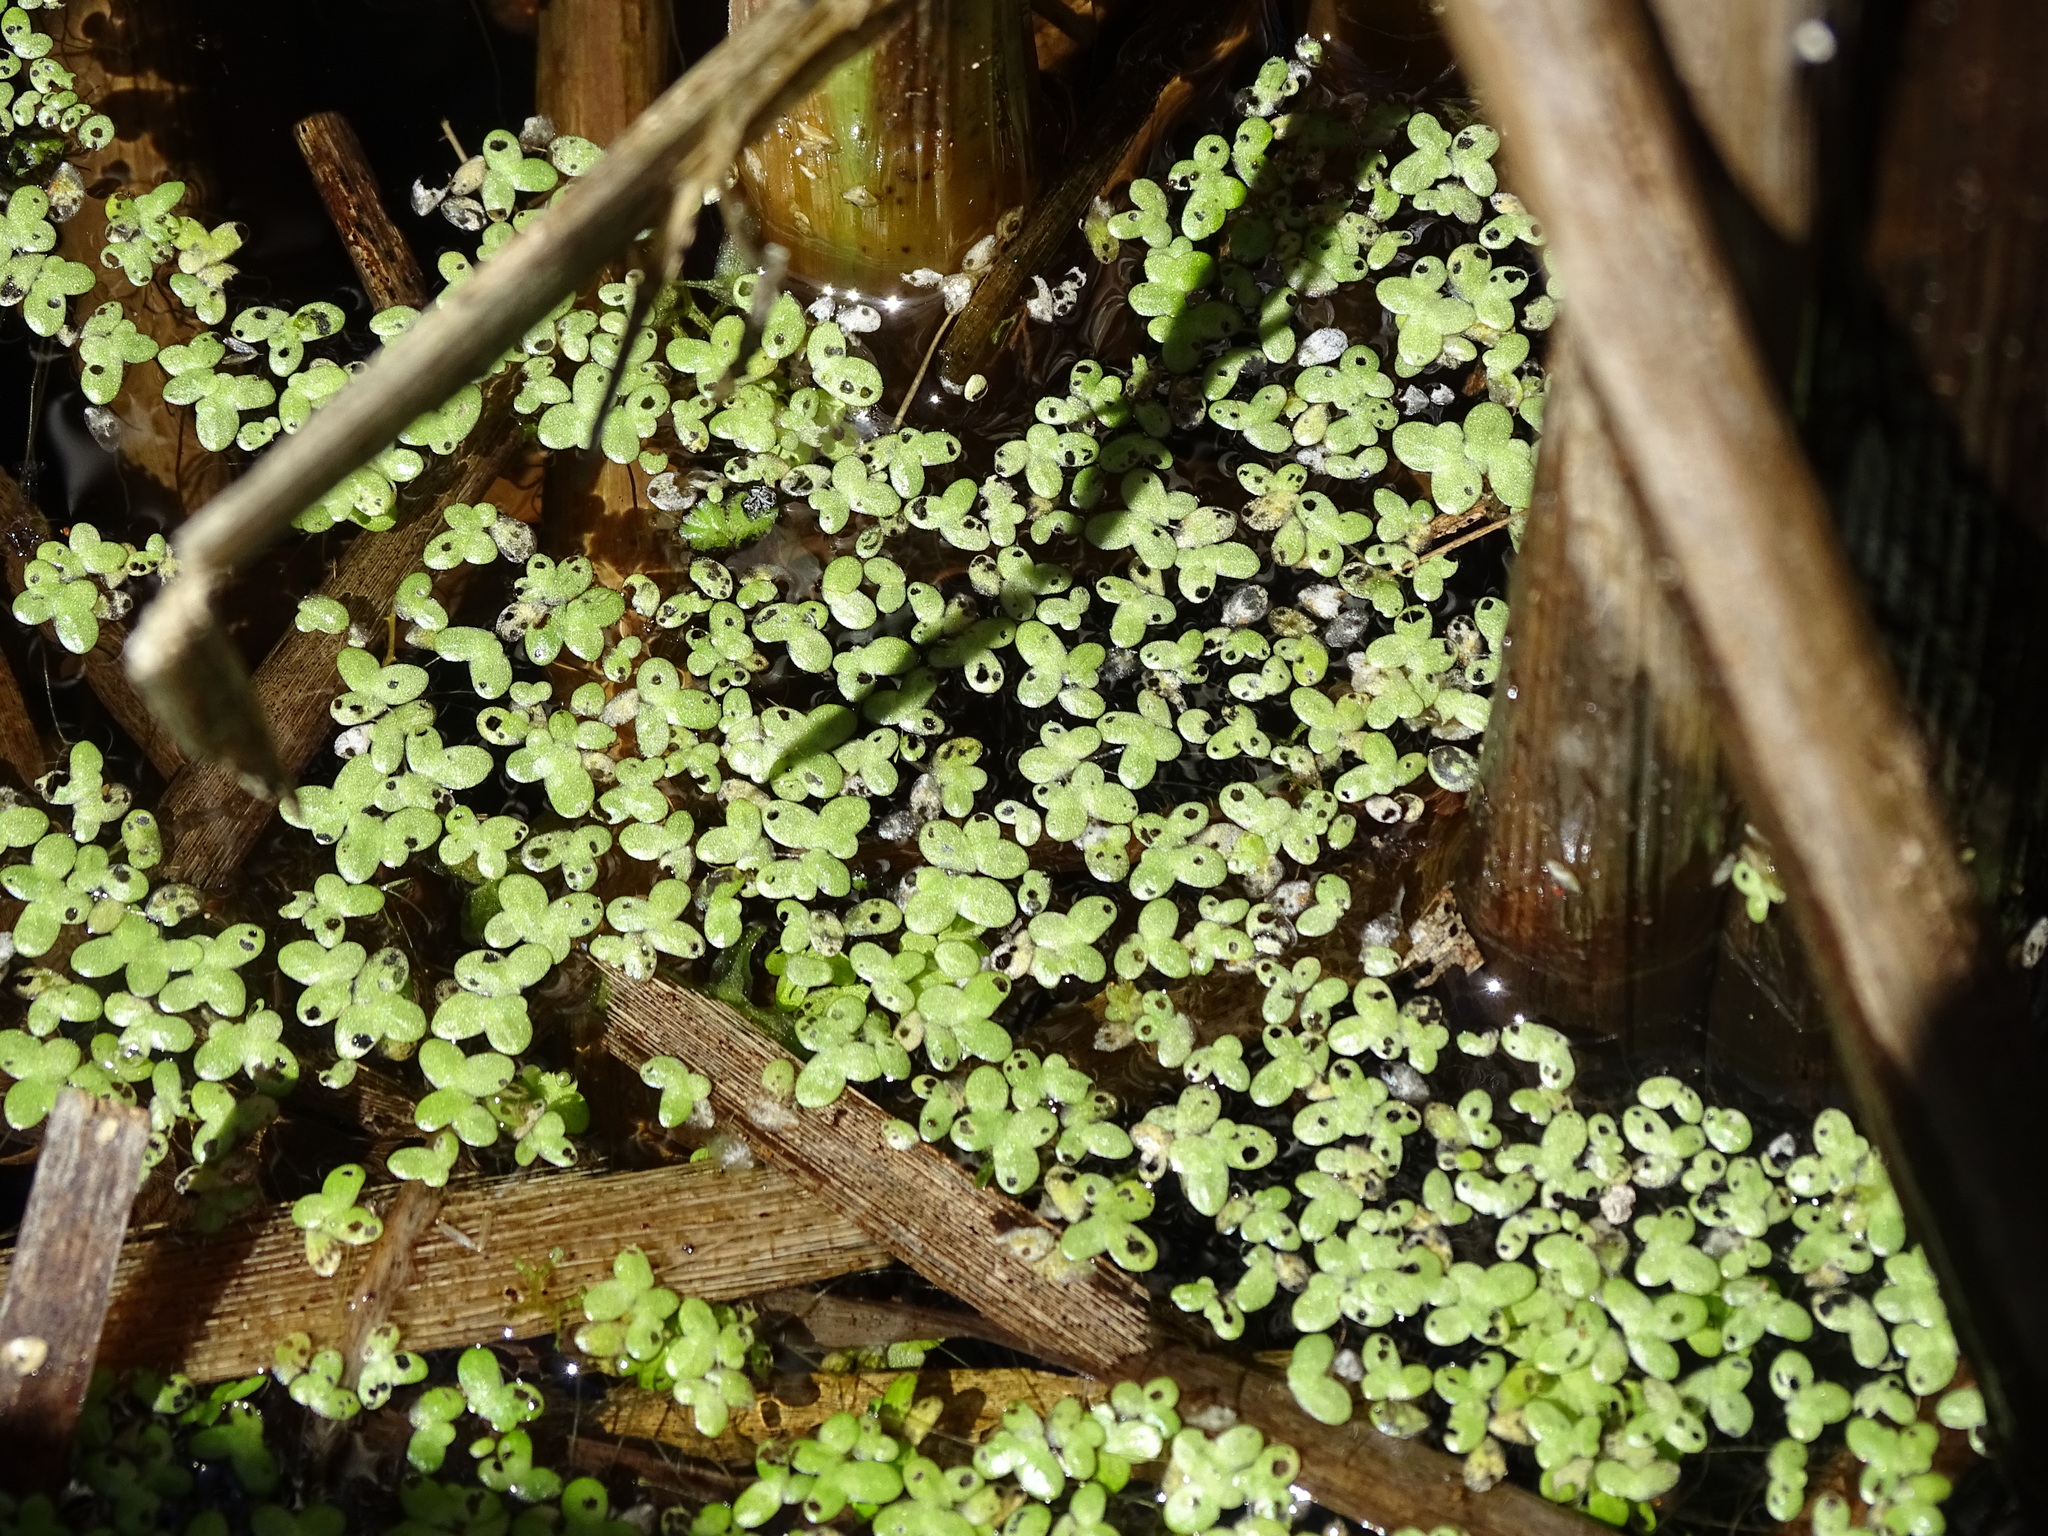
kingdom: Plantae
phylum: Tracheophyta
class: Liliopsida
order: Alismatales
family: Araceae
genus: Lemna
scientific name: Lemna minor
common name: Common duckweed
